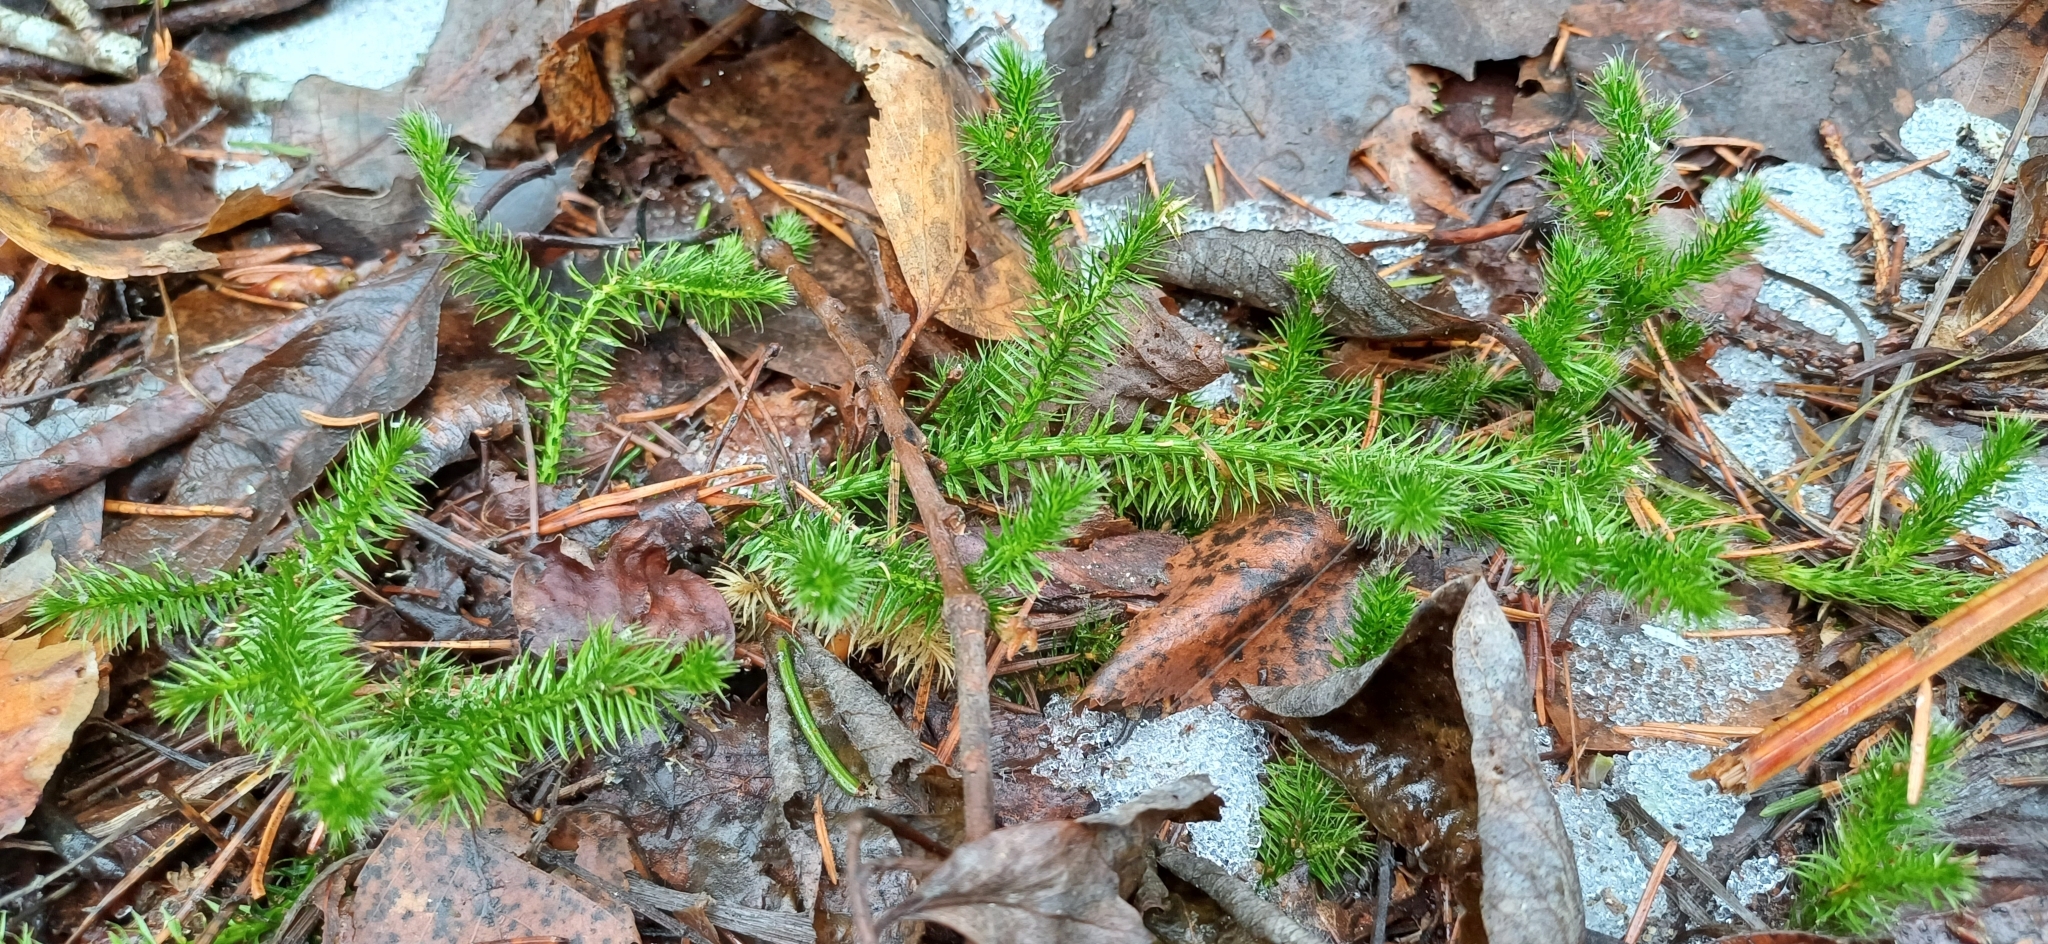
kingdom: Plantae
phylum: Tracheophyta
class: Lycopodiopsida
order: Lycopodiales
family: Lycopodiaceae
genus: Lycopodium
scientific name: Lycopodium clavatum
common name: Stag's-horn clubmoss
